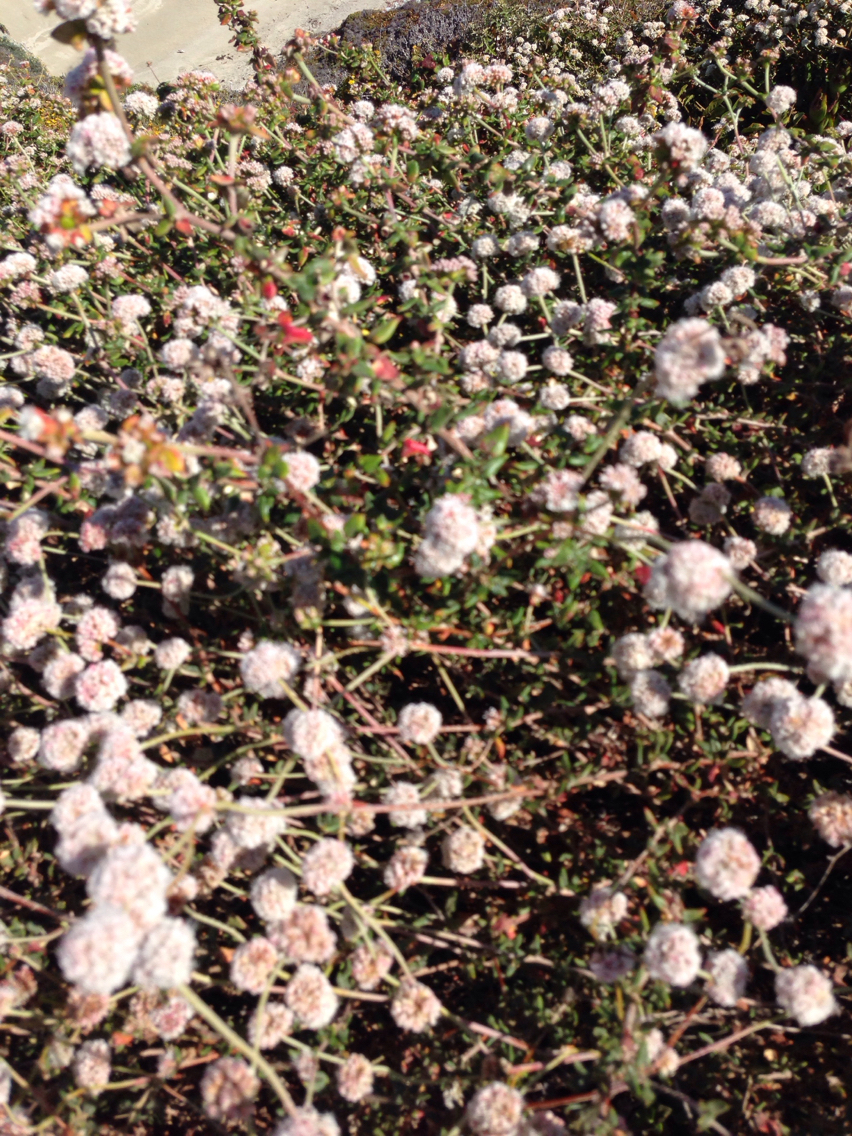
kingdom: Plantae
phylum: Tracheophyta
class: Magnoliopsida
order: Caryophyllales
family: Polygonaceae
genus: Eriogonum
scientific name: Eriogonum parvifolium
